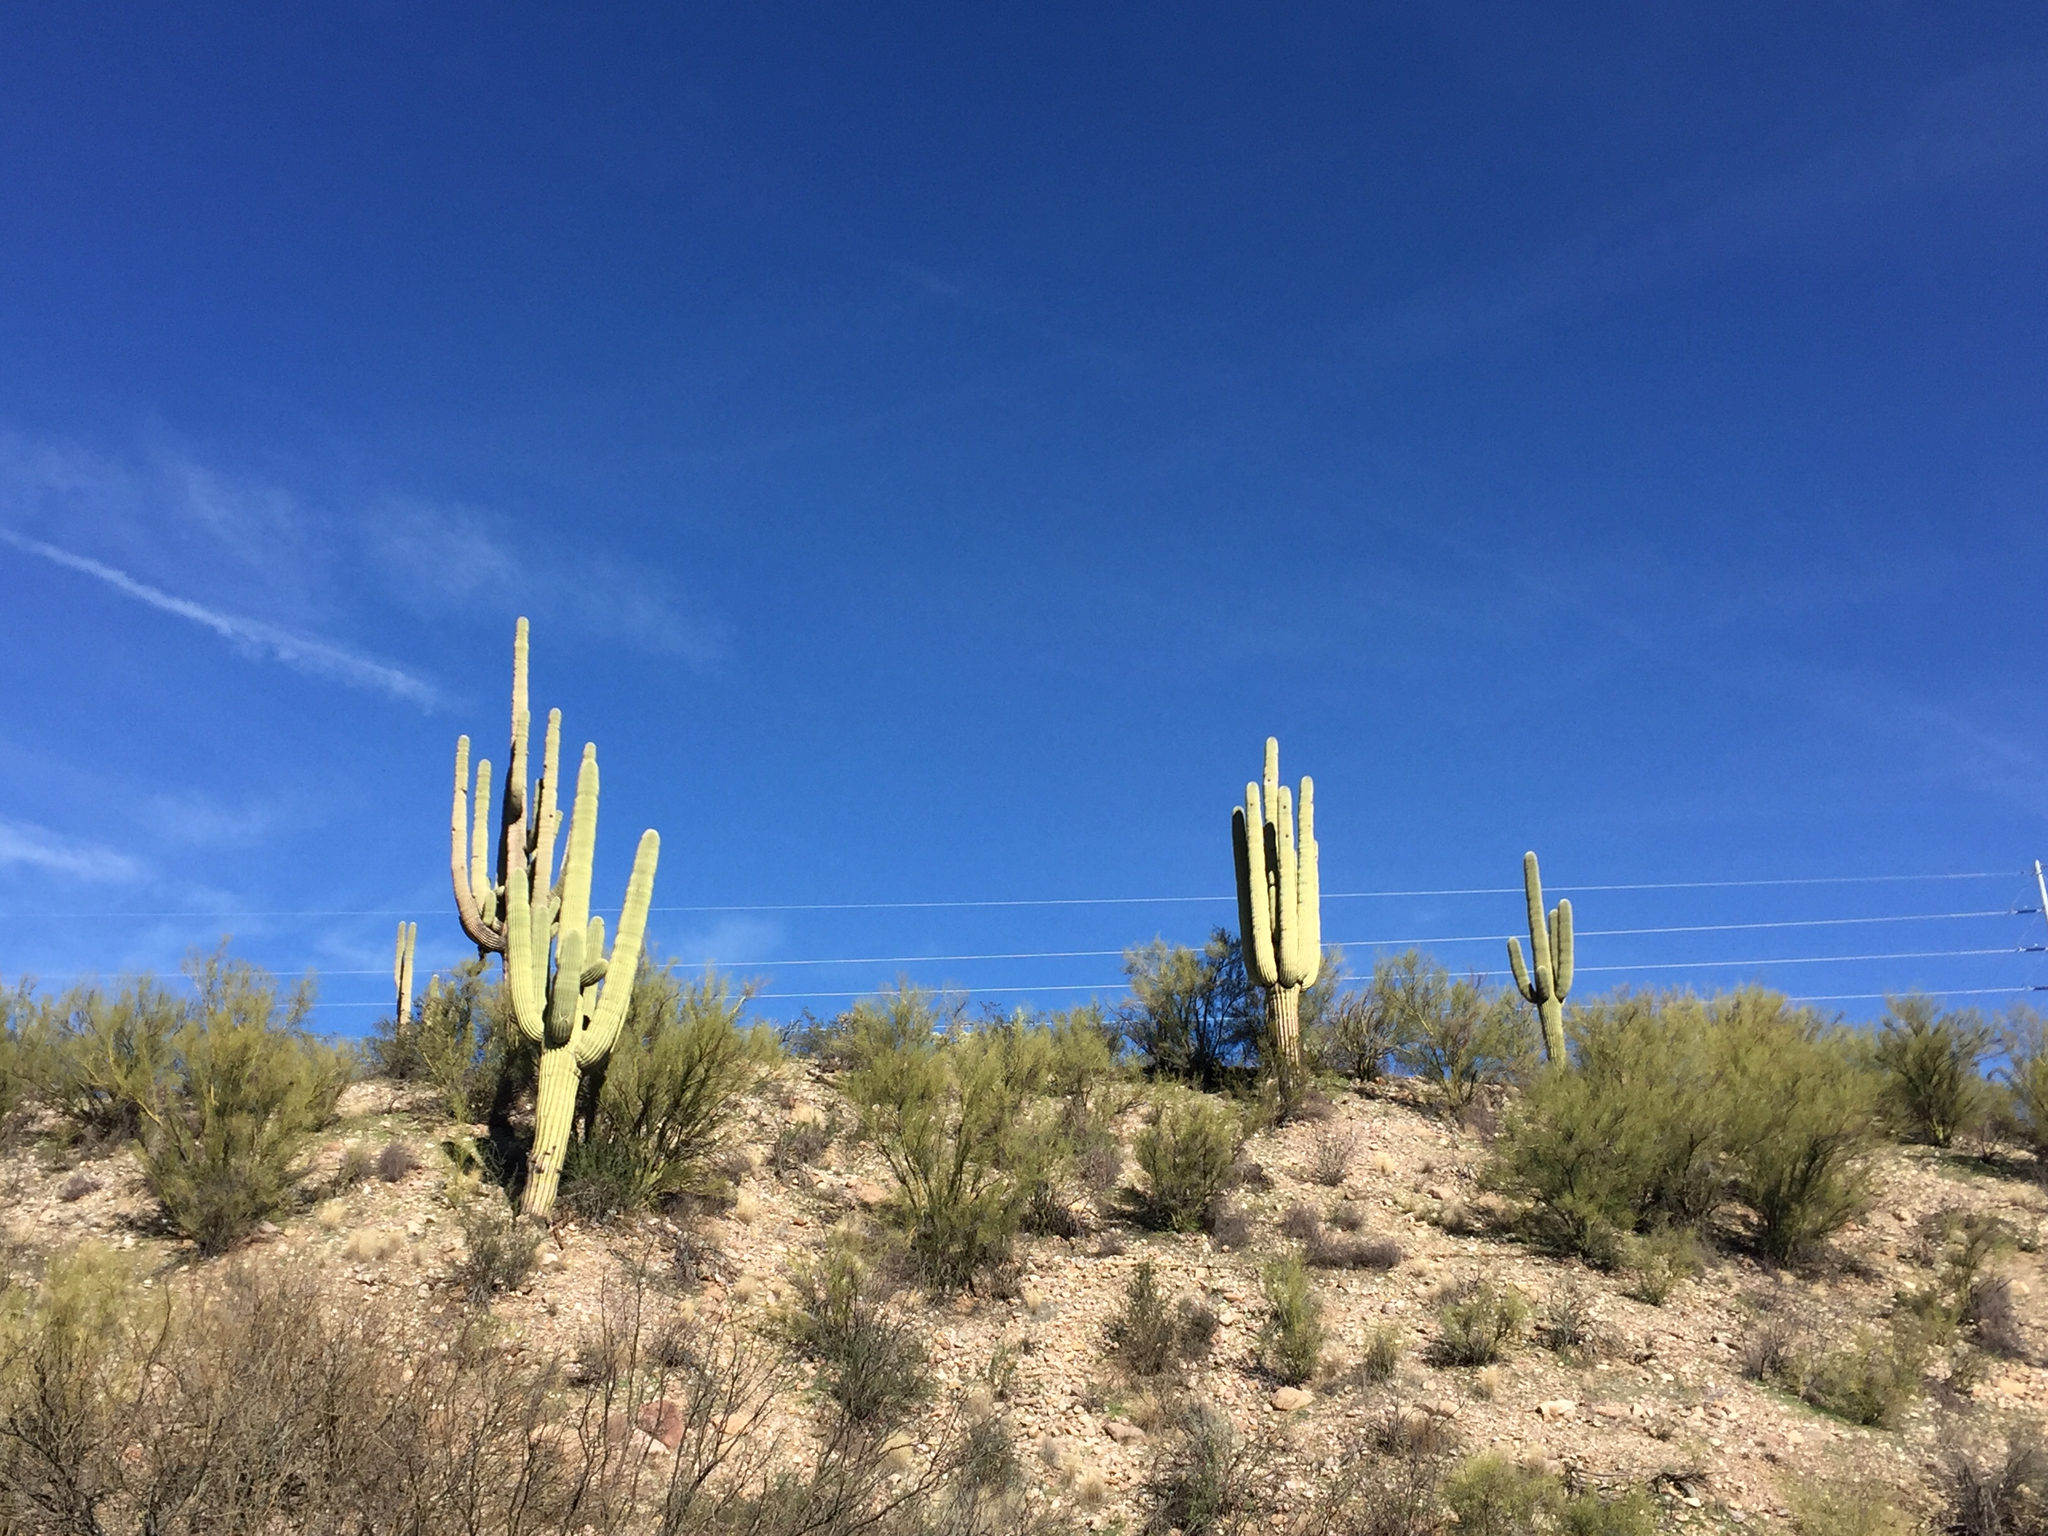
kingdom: Plantae
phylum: Tracheophyta
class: Magnoliopsida
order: Caryophyllales
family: Cactaceae
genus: Carnegiea
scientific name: Carnegiea gigantea
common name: Saguaro
